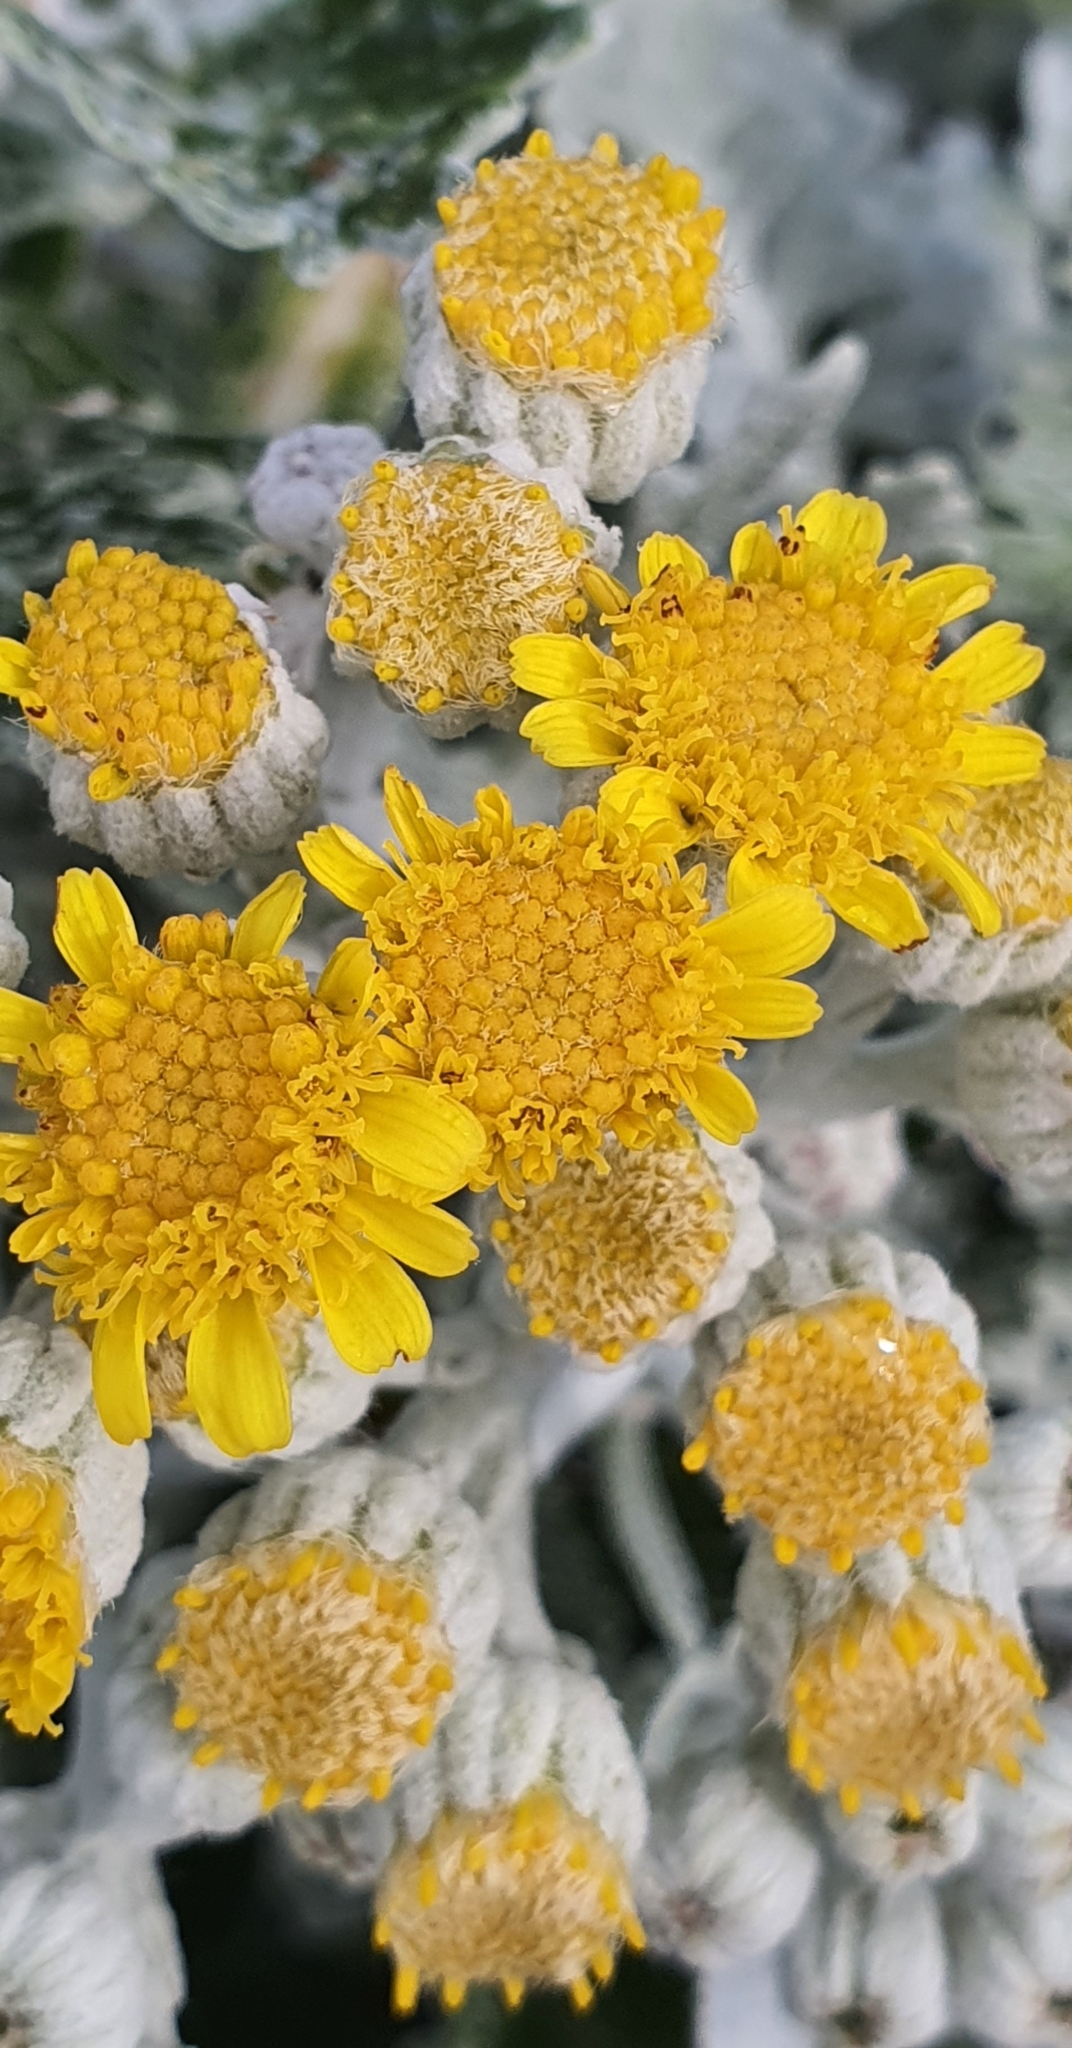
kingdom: Plantae
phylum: Tracheophyta
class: Magnoliopsida
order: Asterales
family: Asteraceae
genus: Jacobaea
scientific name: Jacobaea maritima
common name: Silver ragwort
